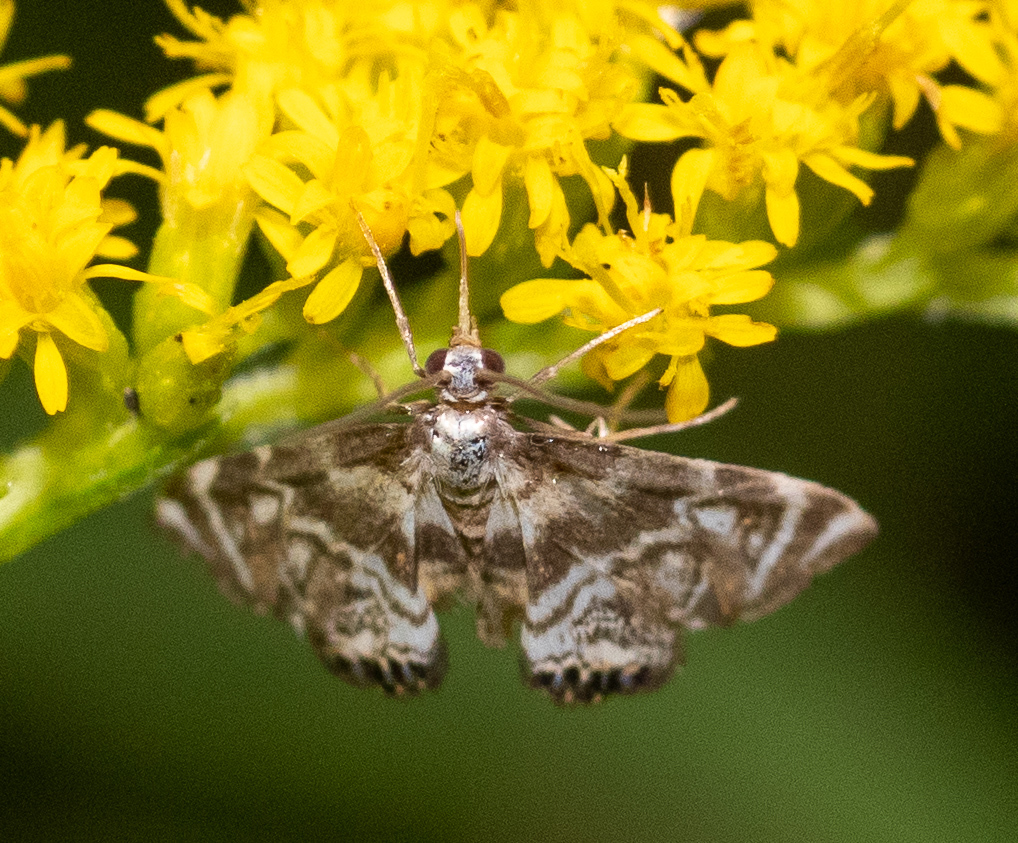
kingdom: Animalia
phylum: Arthropoda
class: Insecta
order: Lepidoptera
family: Crambidae
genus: Petrophila
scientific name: Petrophila canadensis
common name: Canadian petrophila
